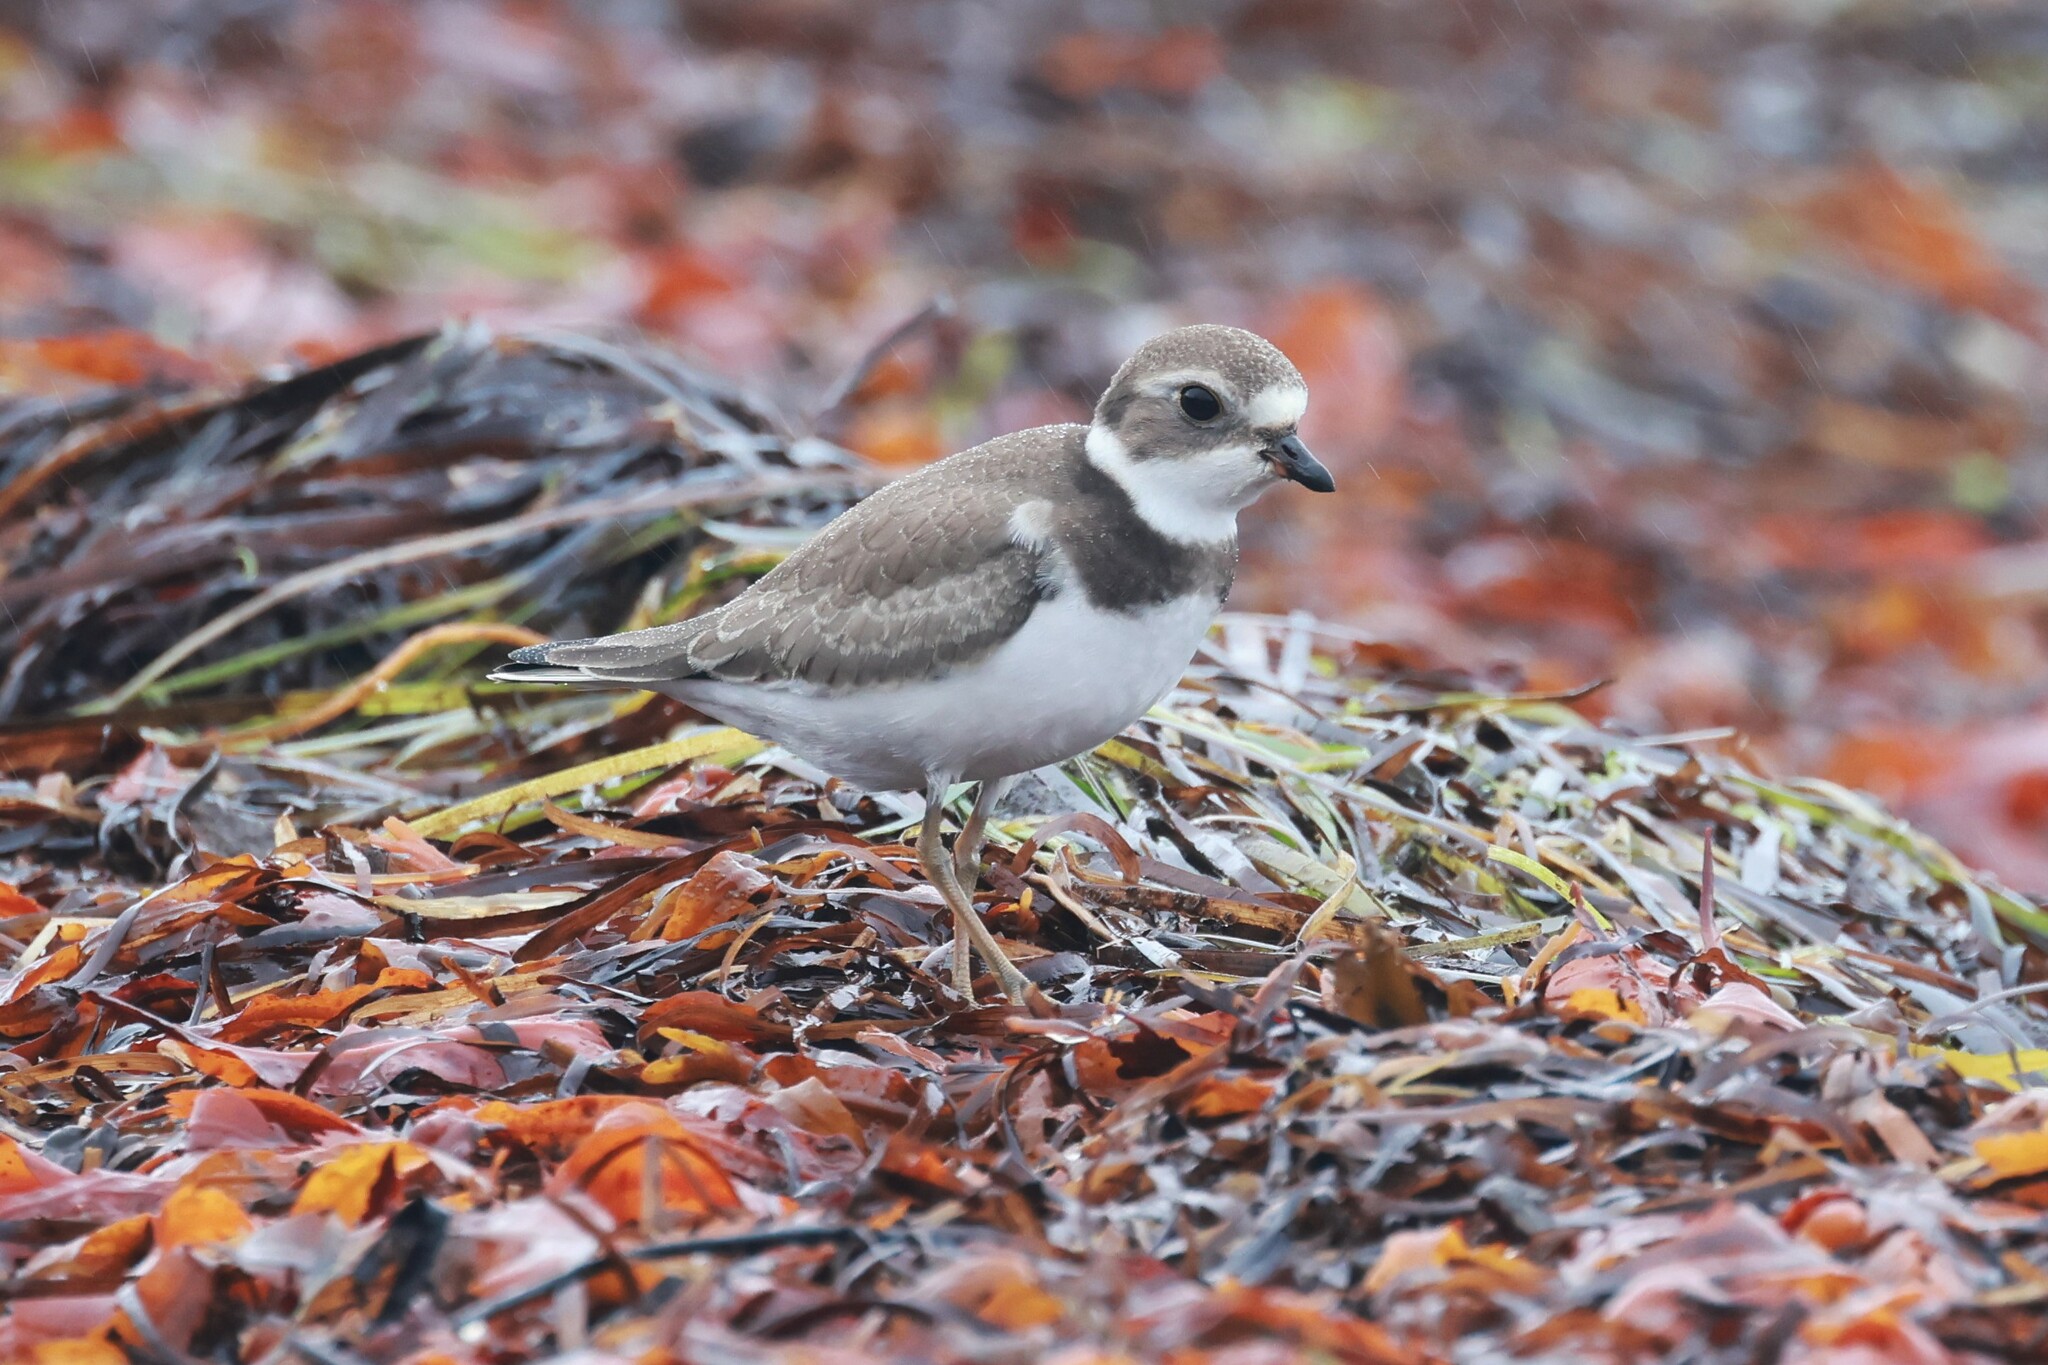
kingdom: Animalia
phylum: Chordata
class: Aves
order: Charadriiformes
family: Charadriidae
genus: Charadrius
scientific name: Charadrius semipalmatus
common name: Semipalmated plover
